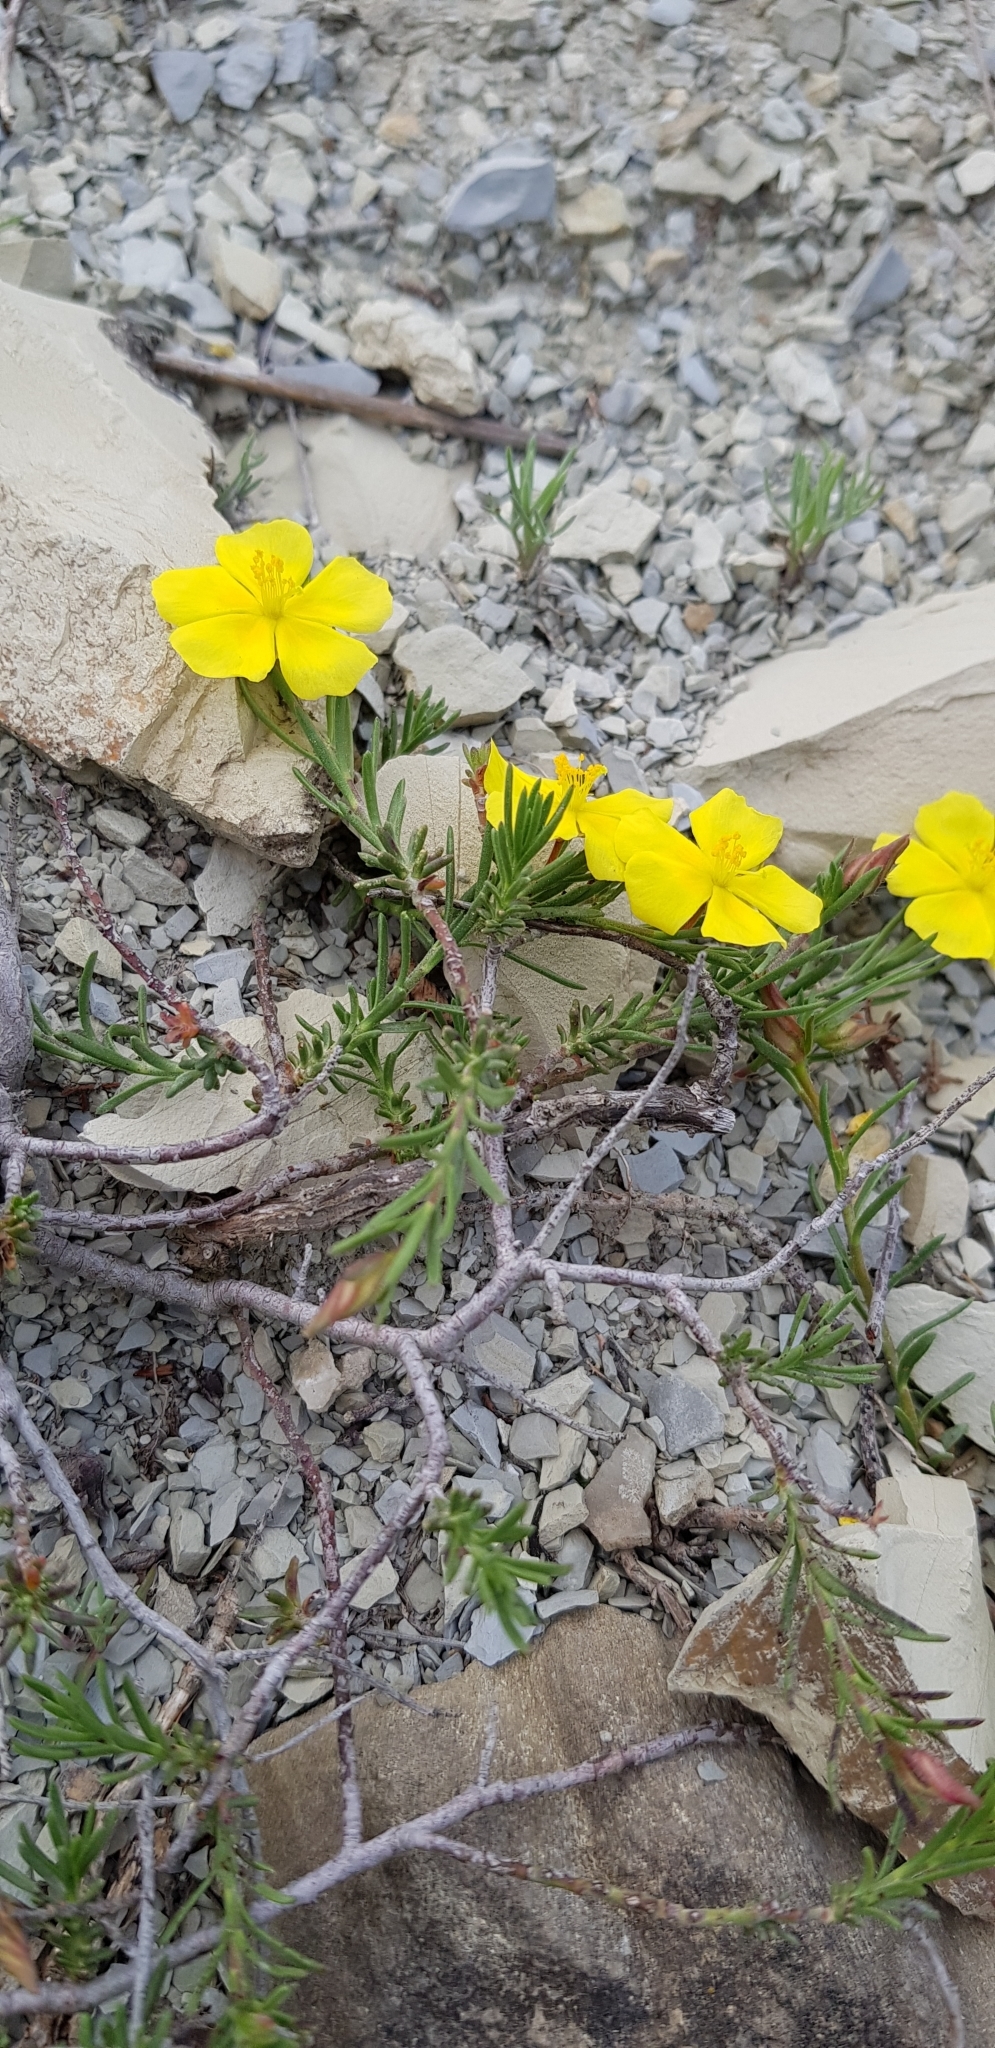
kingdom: Plantae
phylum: Tracheophyta
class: Magnoliopsida
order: Malvales
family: Cistaceae
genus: Fumana
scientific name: Fumana procumbens
